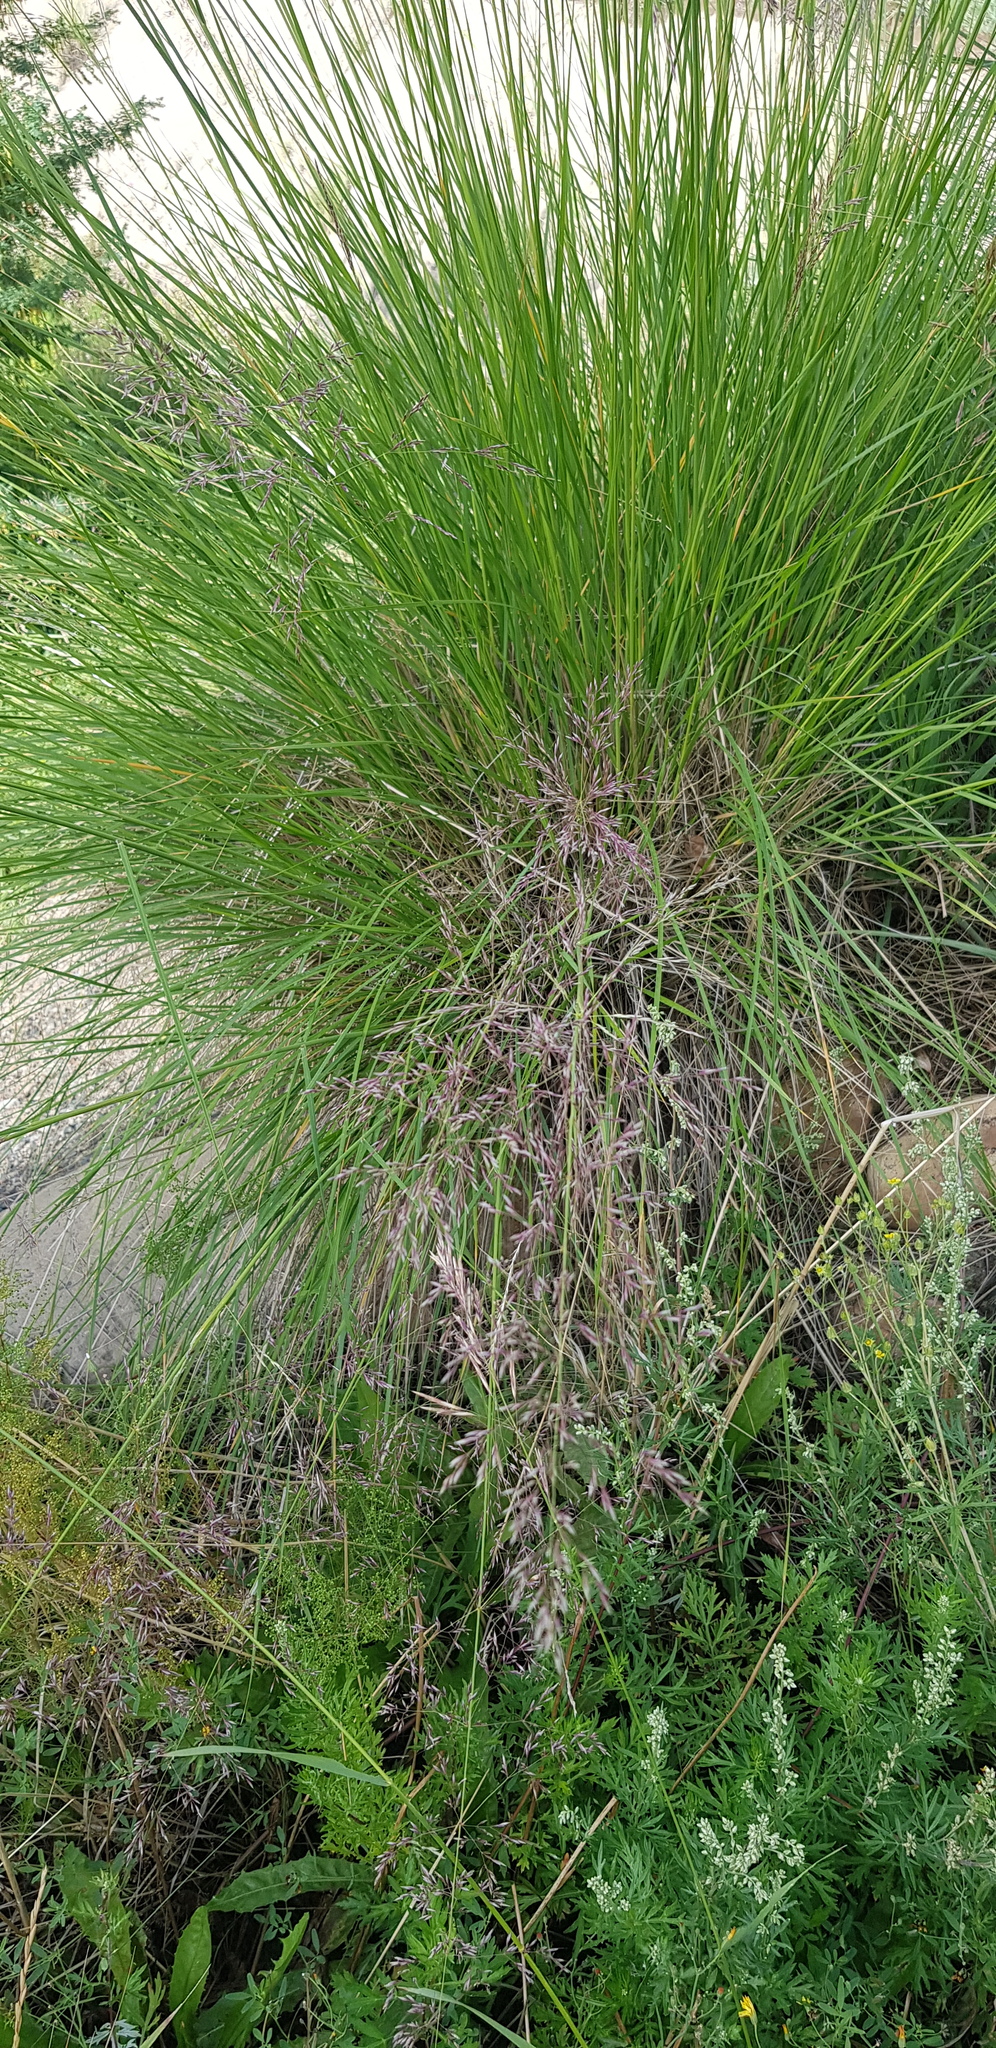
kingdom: Plantae
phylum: Tracheophyta
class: Liliopsida
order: Poales
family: Poaceae
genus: Neotrinia
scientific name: Neotrinia splendens
